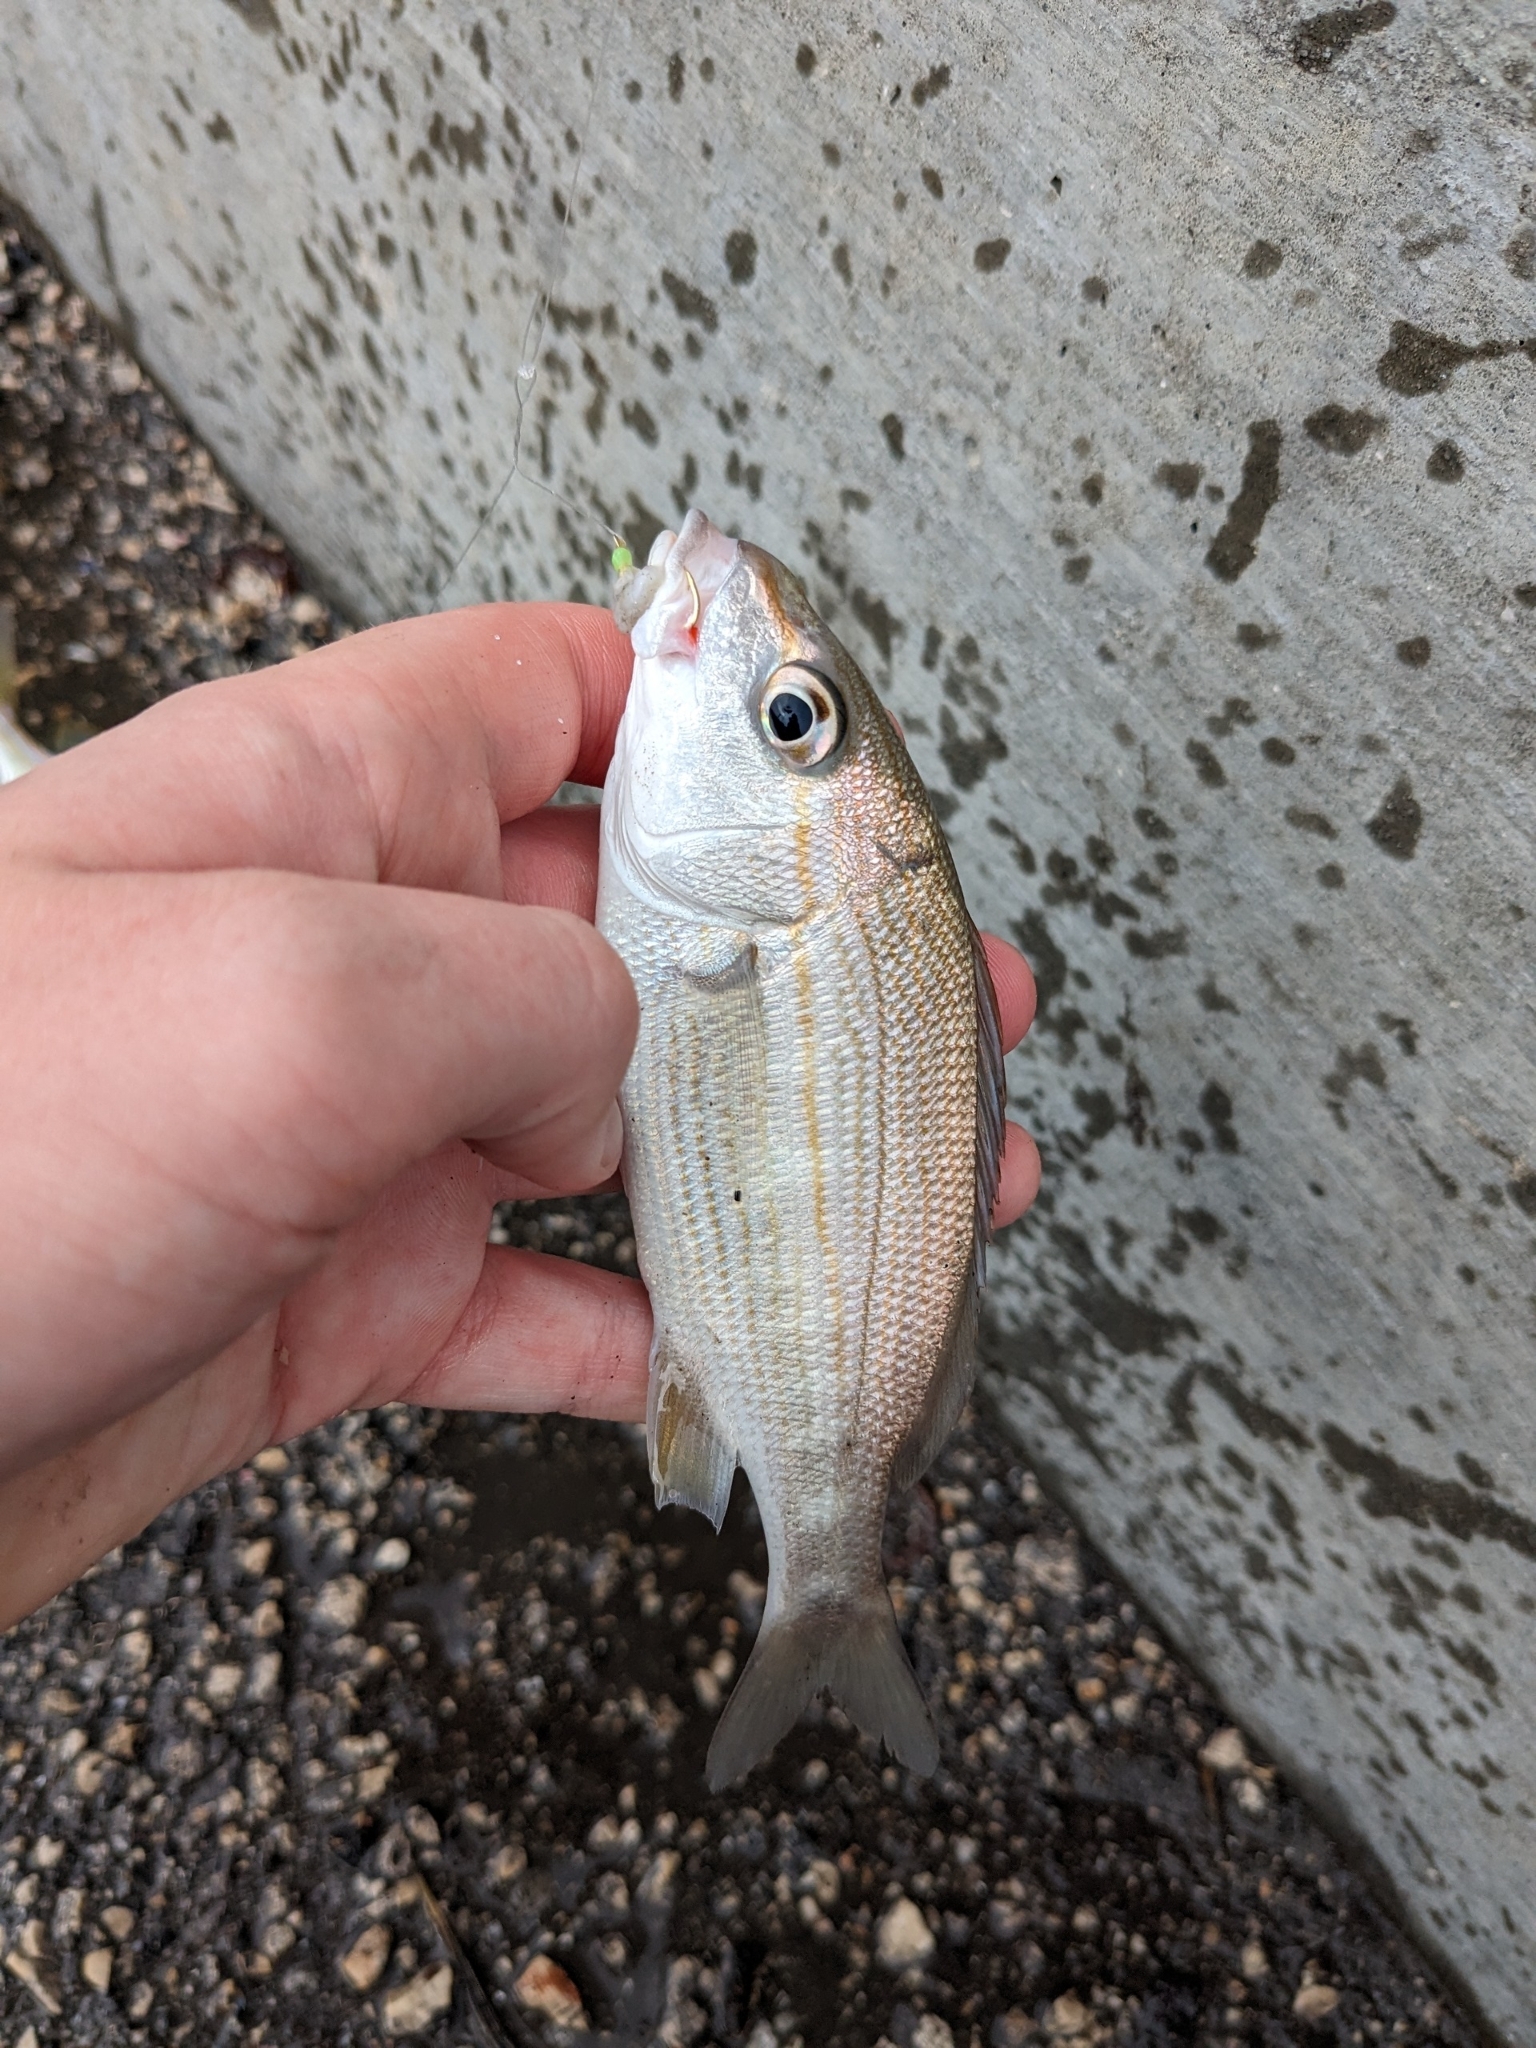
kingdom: Animalia
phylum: Chordata
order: Perciformes
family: Haemulidae
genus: Haemulon
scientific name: Haemulon aurolineatum
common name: Tomtate
